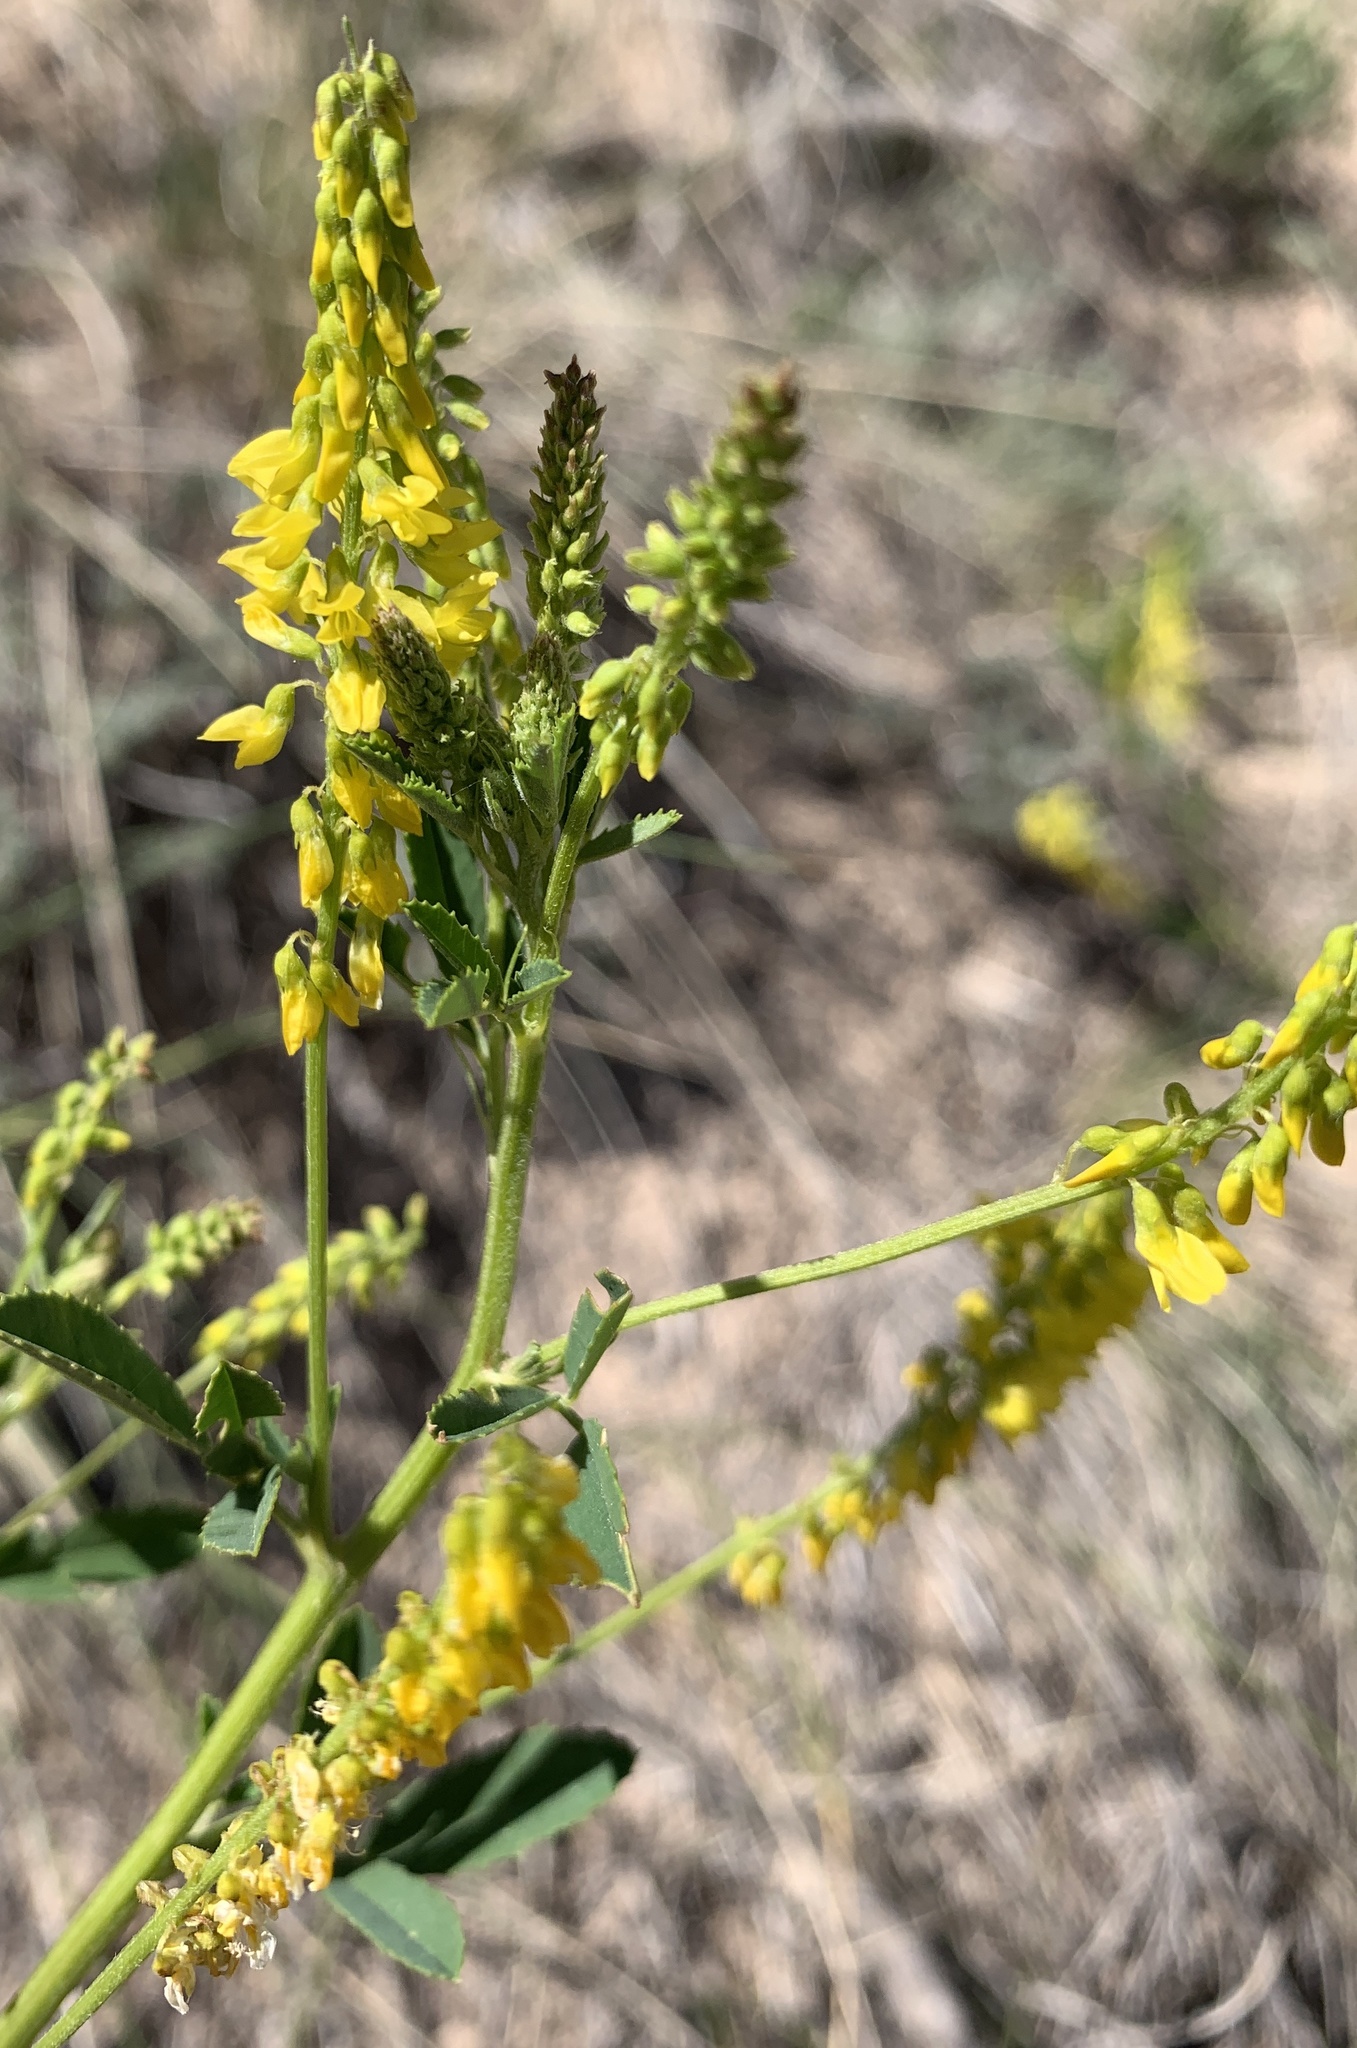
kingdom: Plantae
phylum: Tracheophyta
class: Magnoliopsida
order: Fabales
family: Fabaceae
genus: Melilotus
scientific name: Melilotus officinalis
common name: Sweetclover
